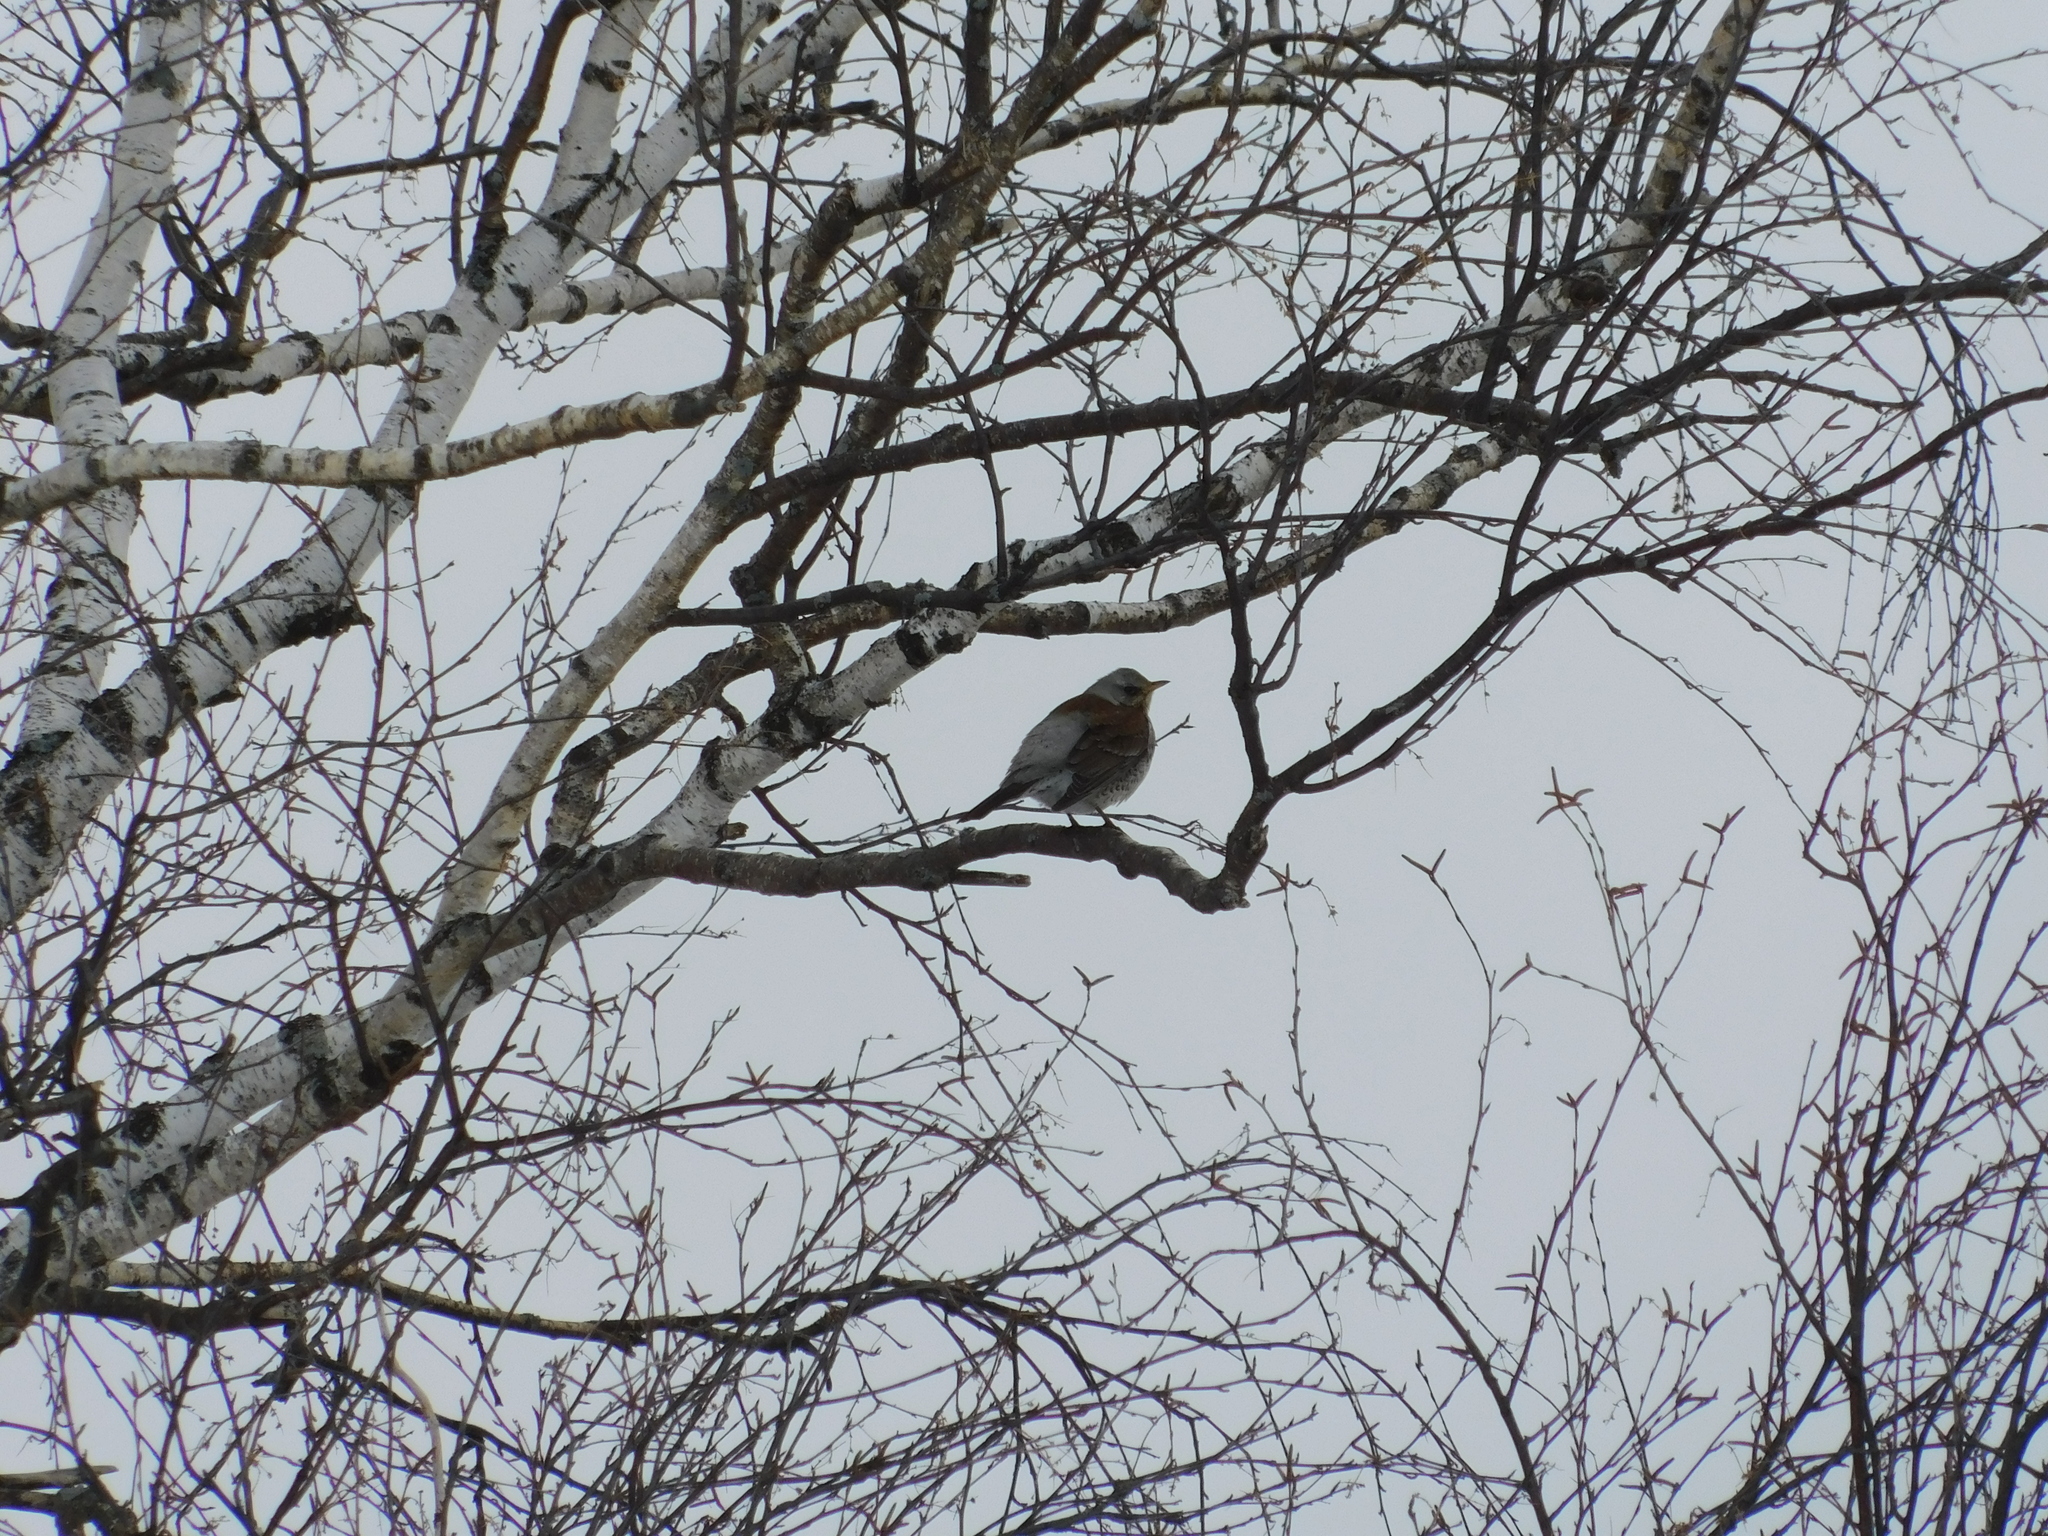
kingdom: Animalia
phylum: Chordata
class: Aves
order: Passeriformes
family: Turdidae
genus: Turdus
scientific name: Turdus pilaris
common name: Fieldfare
